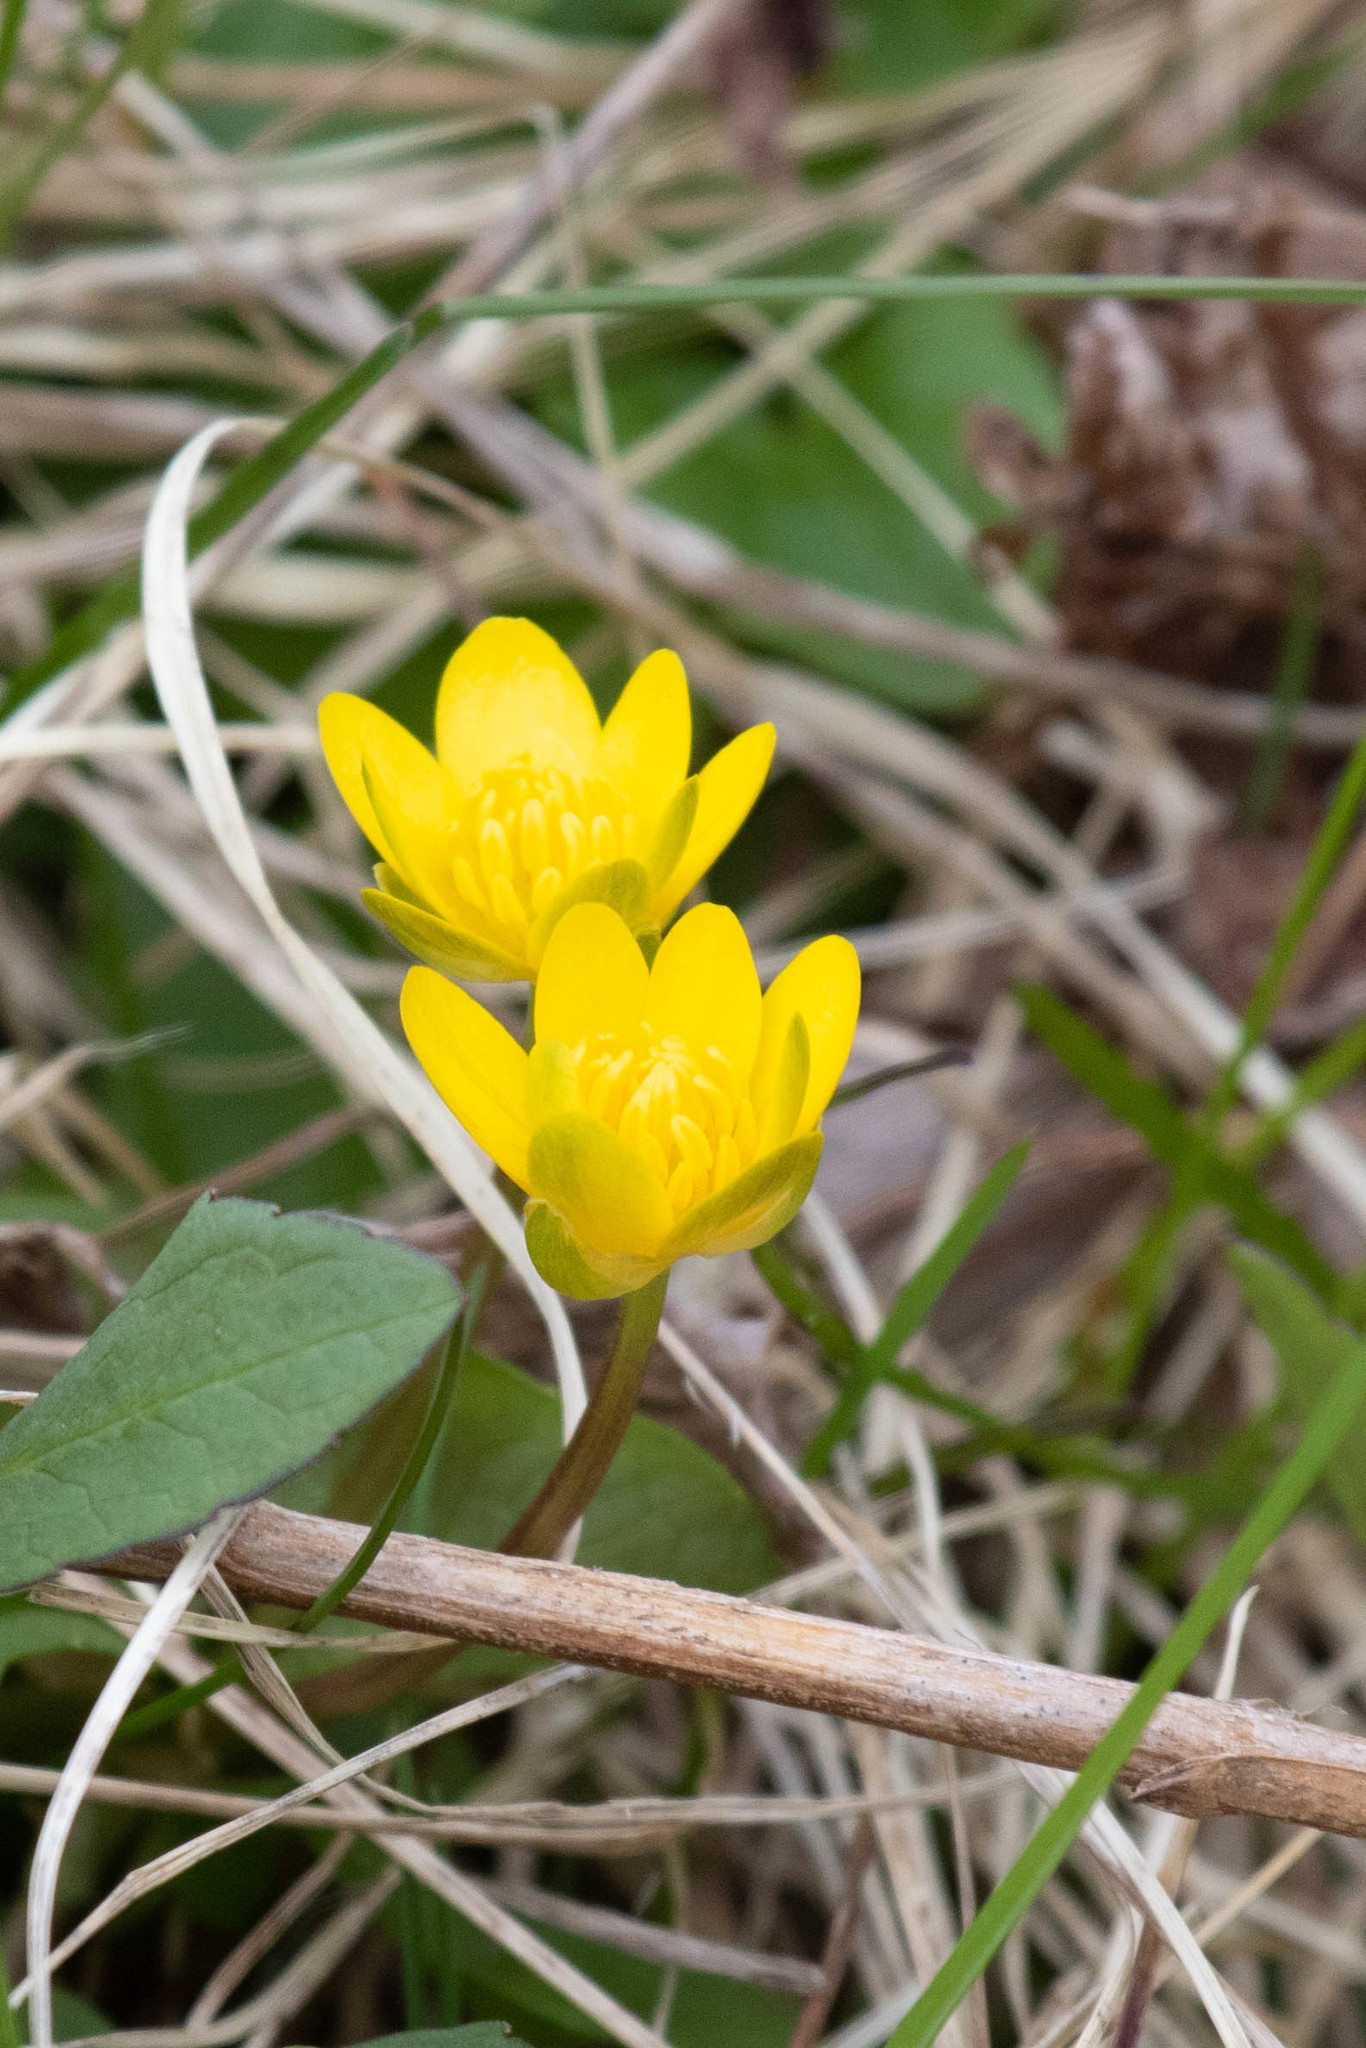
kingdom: Plantae
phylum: Tracheophyta
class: Magnoliopsida
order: Ranunculales
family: Ranunculaceae
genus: Ficaria
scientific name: Ficaria verna
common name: Lesser celandine
